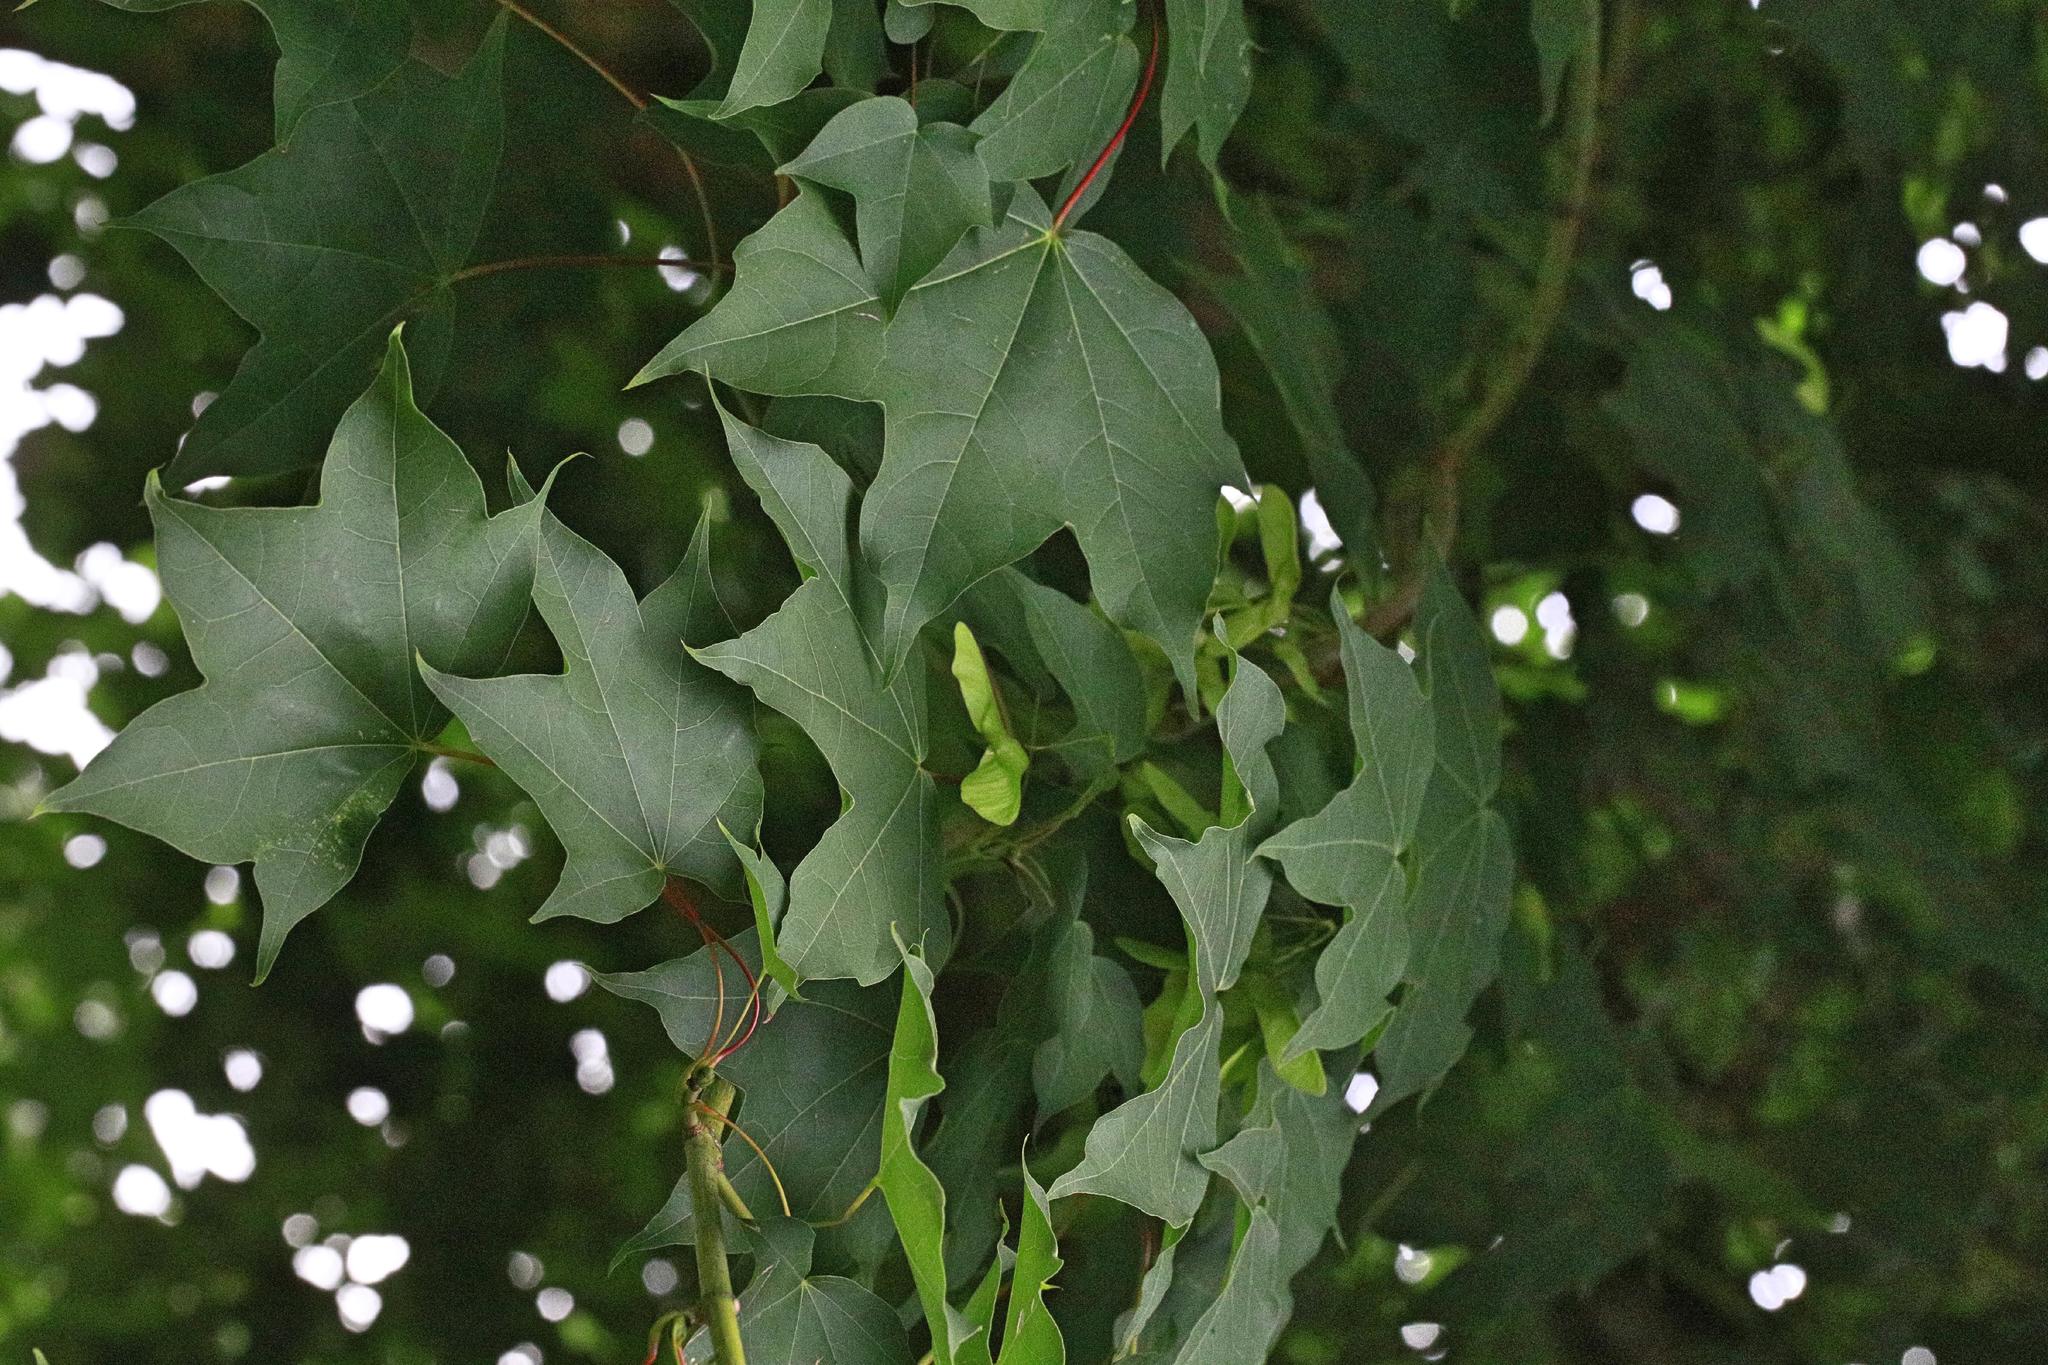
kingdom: Plantae
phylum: Tracheophyta
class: Magnoliopsida
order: Sapindales
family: Sapindaceae
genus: Acer
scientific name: Acer cappadocicum
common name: Cappadocian maple
